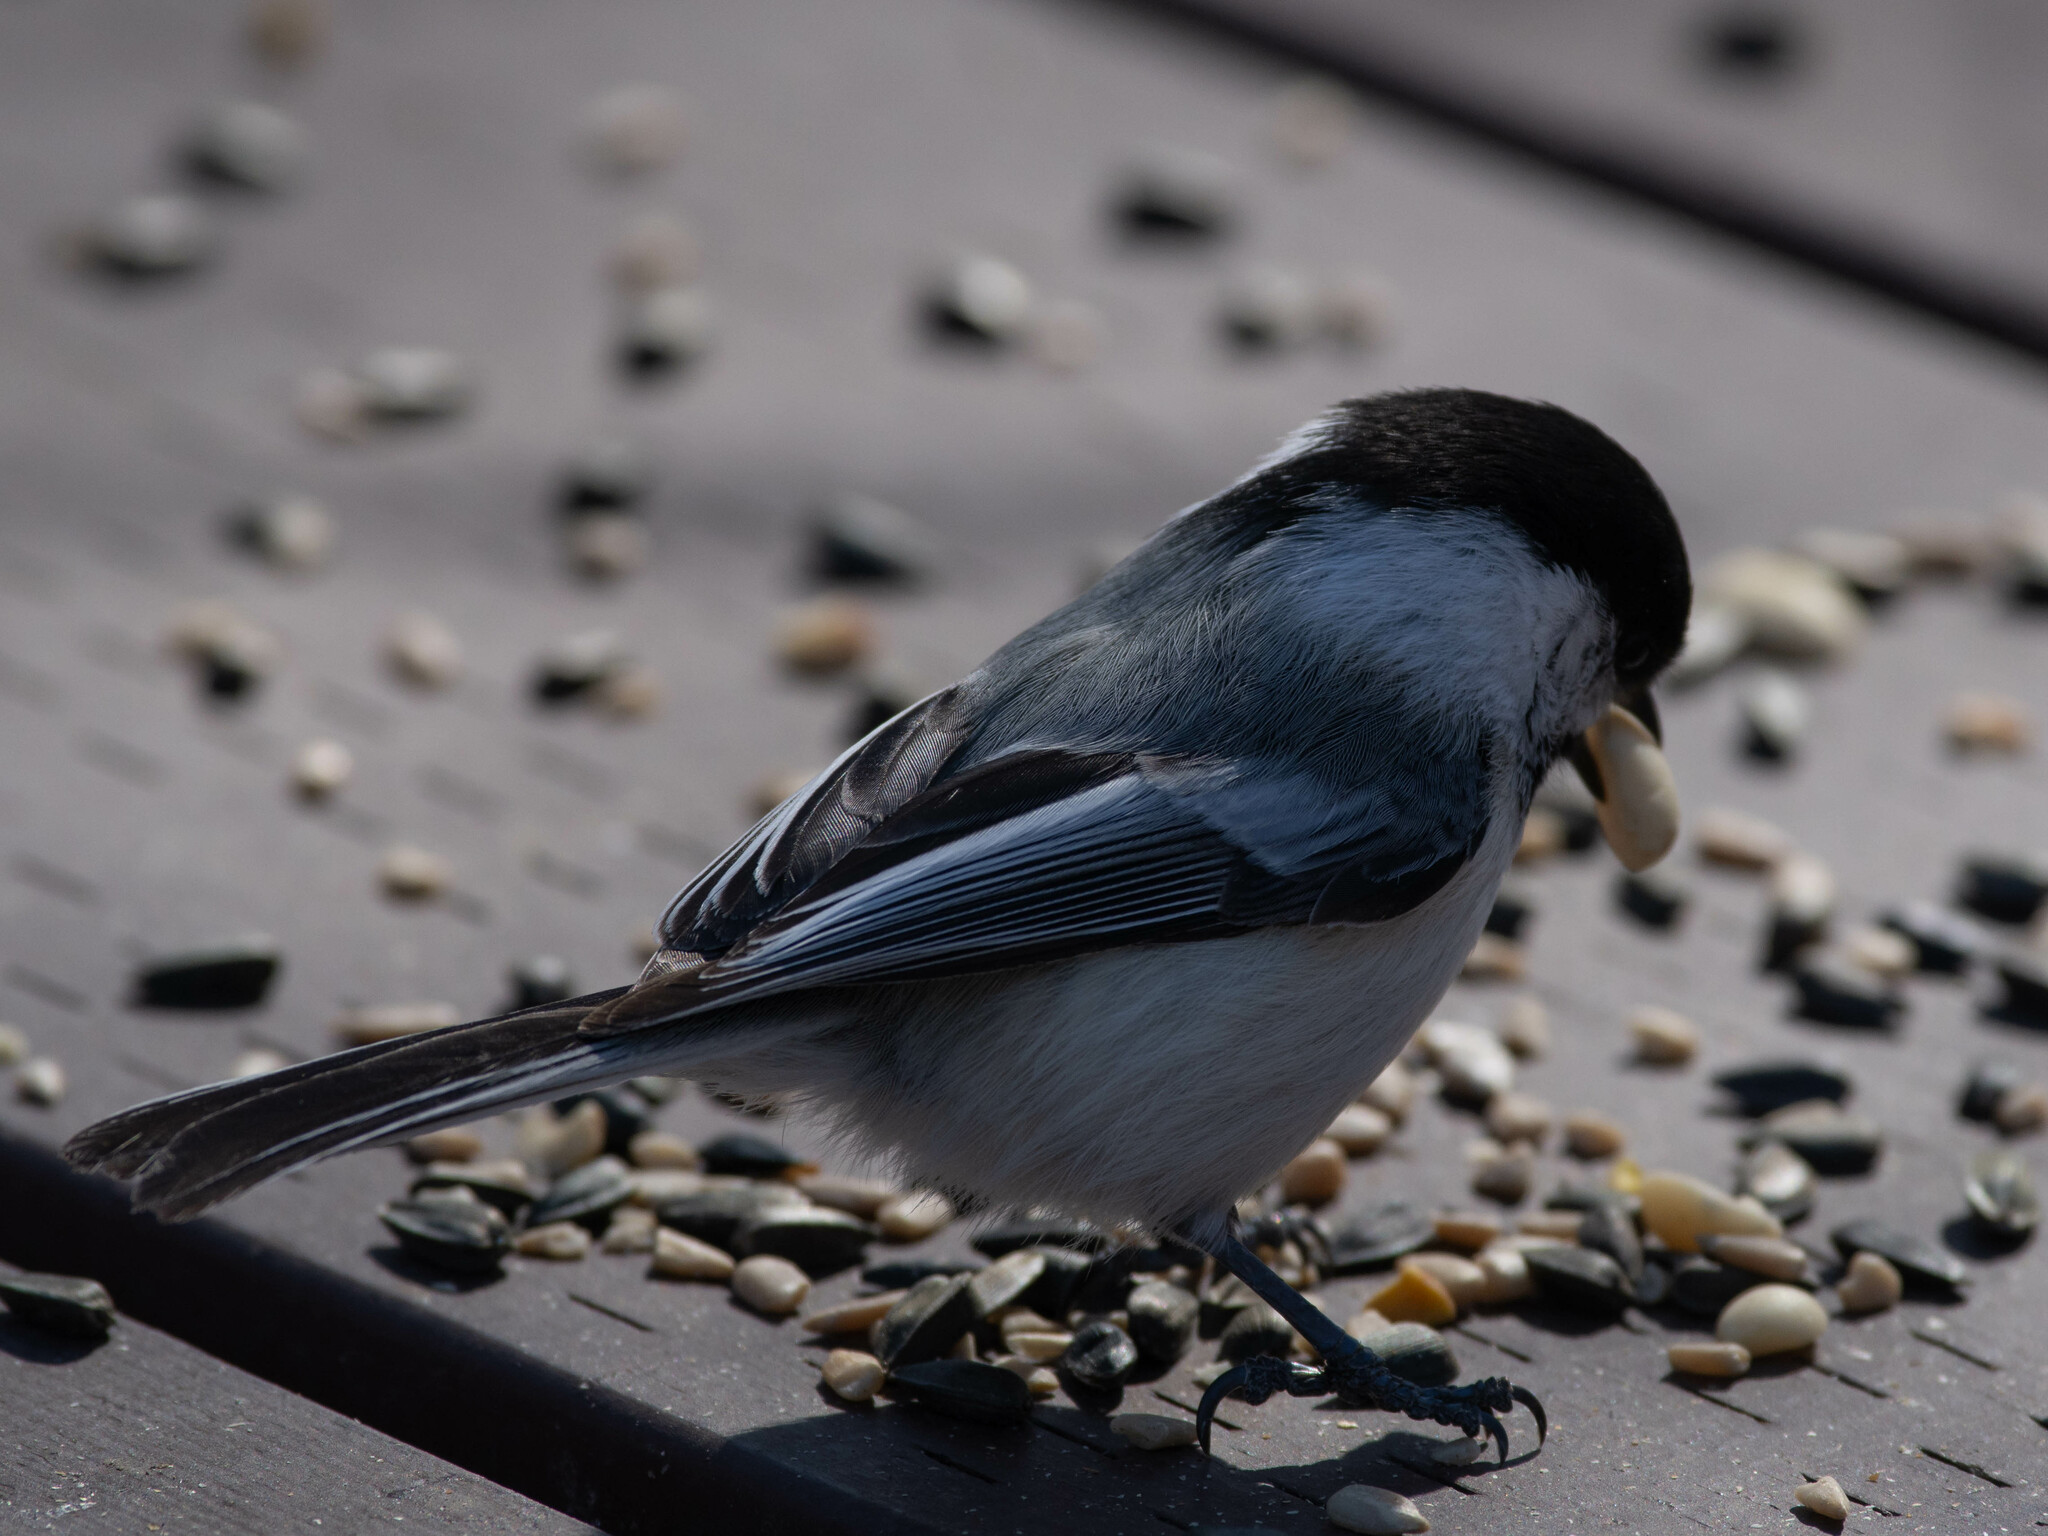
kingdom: Animalia
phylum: Chordata
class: Aves
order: Passeriformes
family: Paridae
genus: Poecile
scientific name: Poecile atricapillus
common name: Black-capped chickadee
